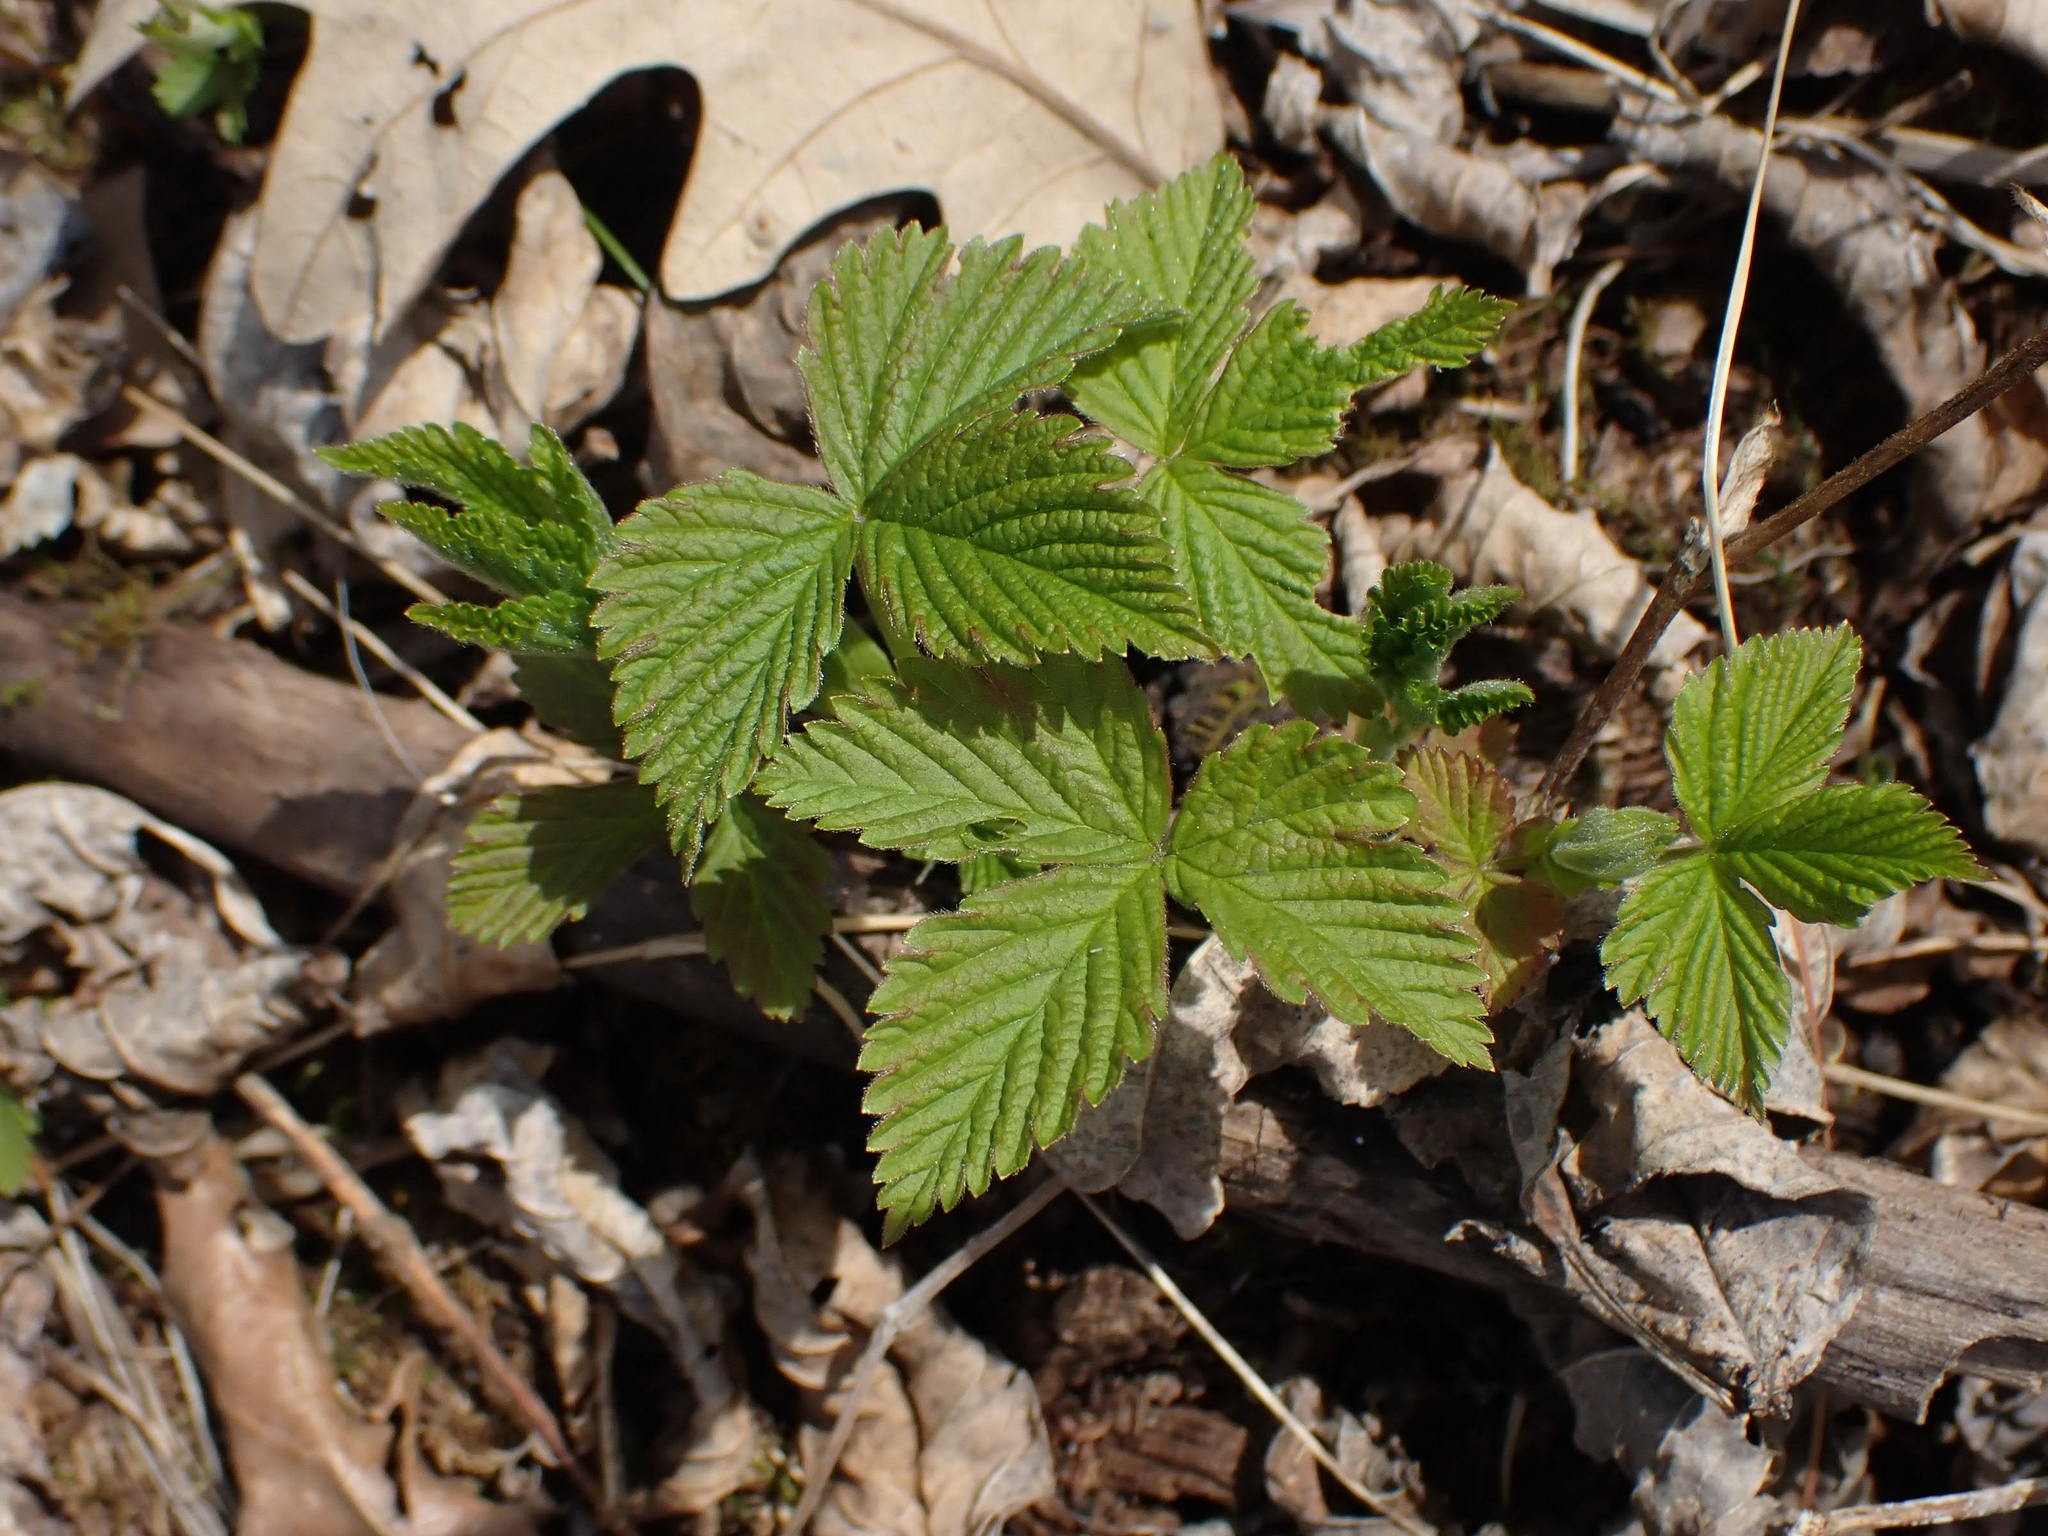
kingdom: Plantae
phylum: Tracheophyta
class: Magnoliopsida
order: Rosales
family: Rosaceae
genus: Rubus
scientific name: Rubus pubescens
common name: Dwarf raspberry
